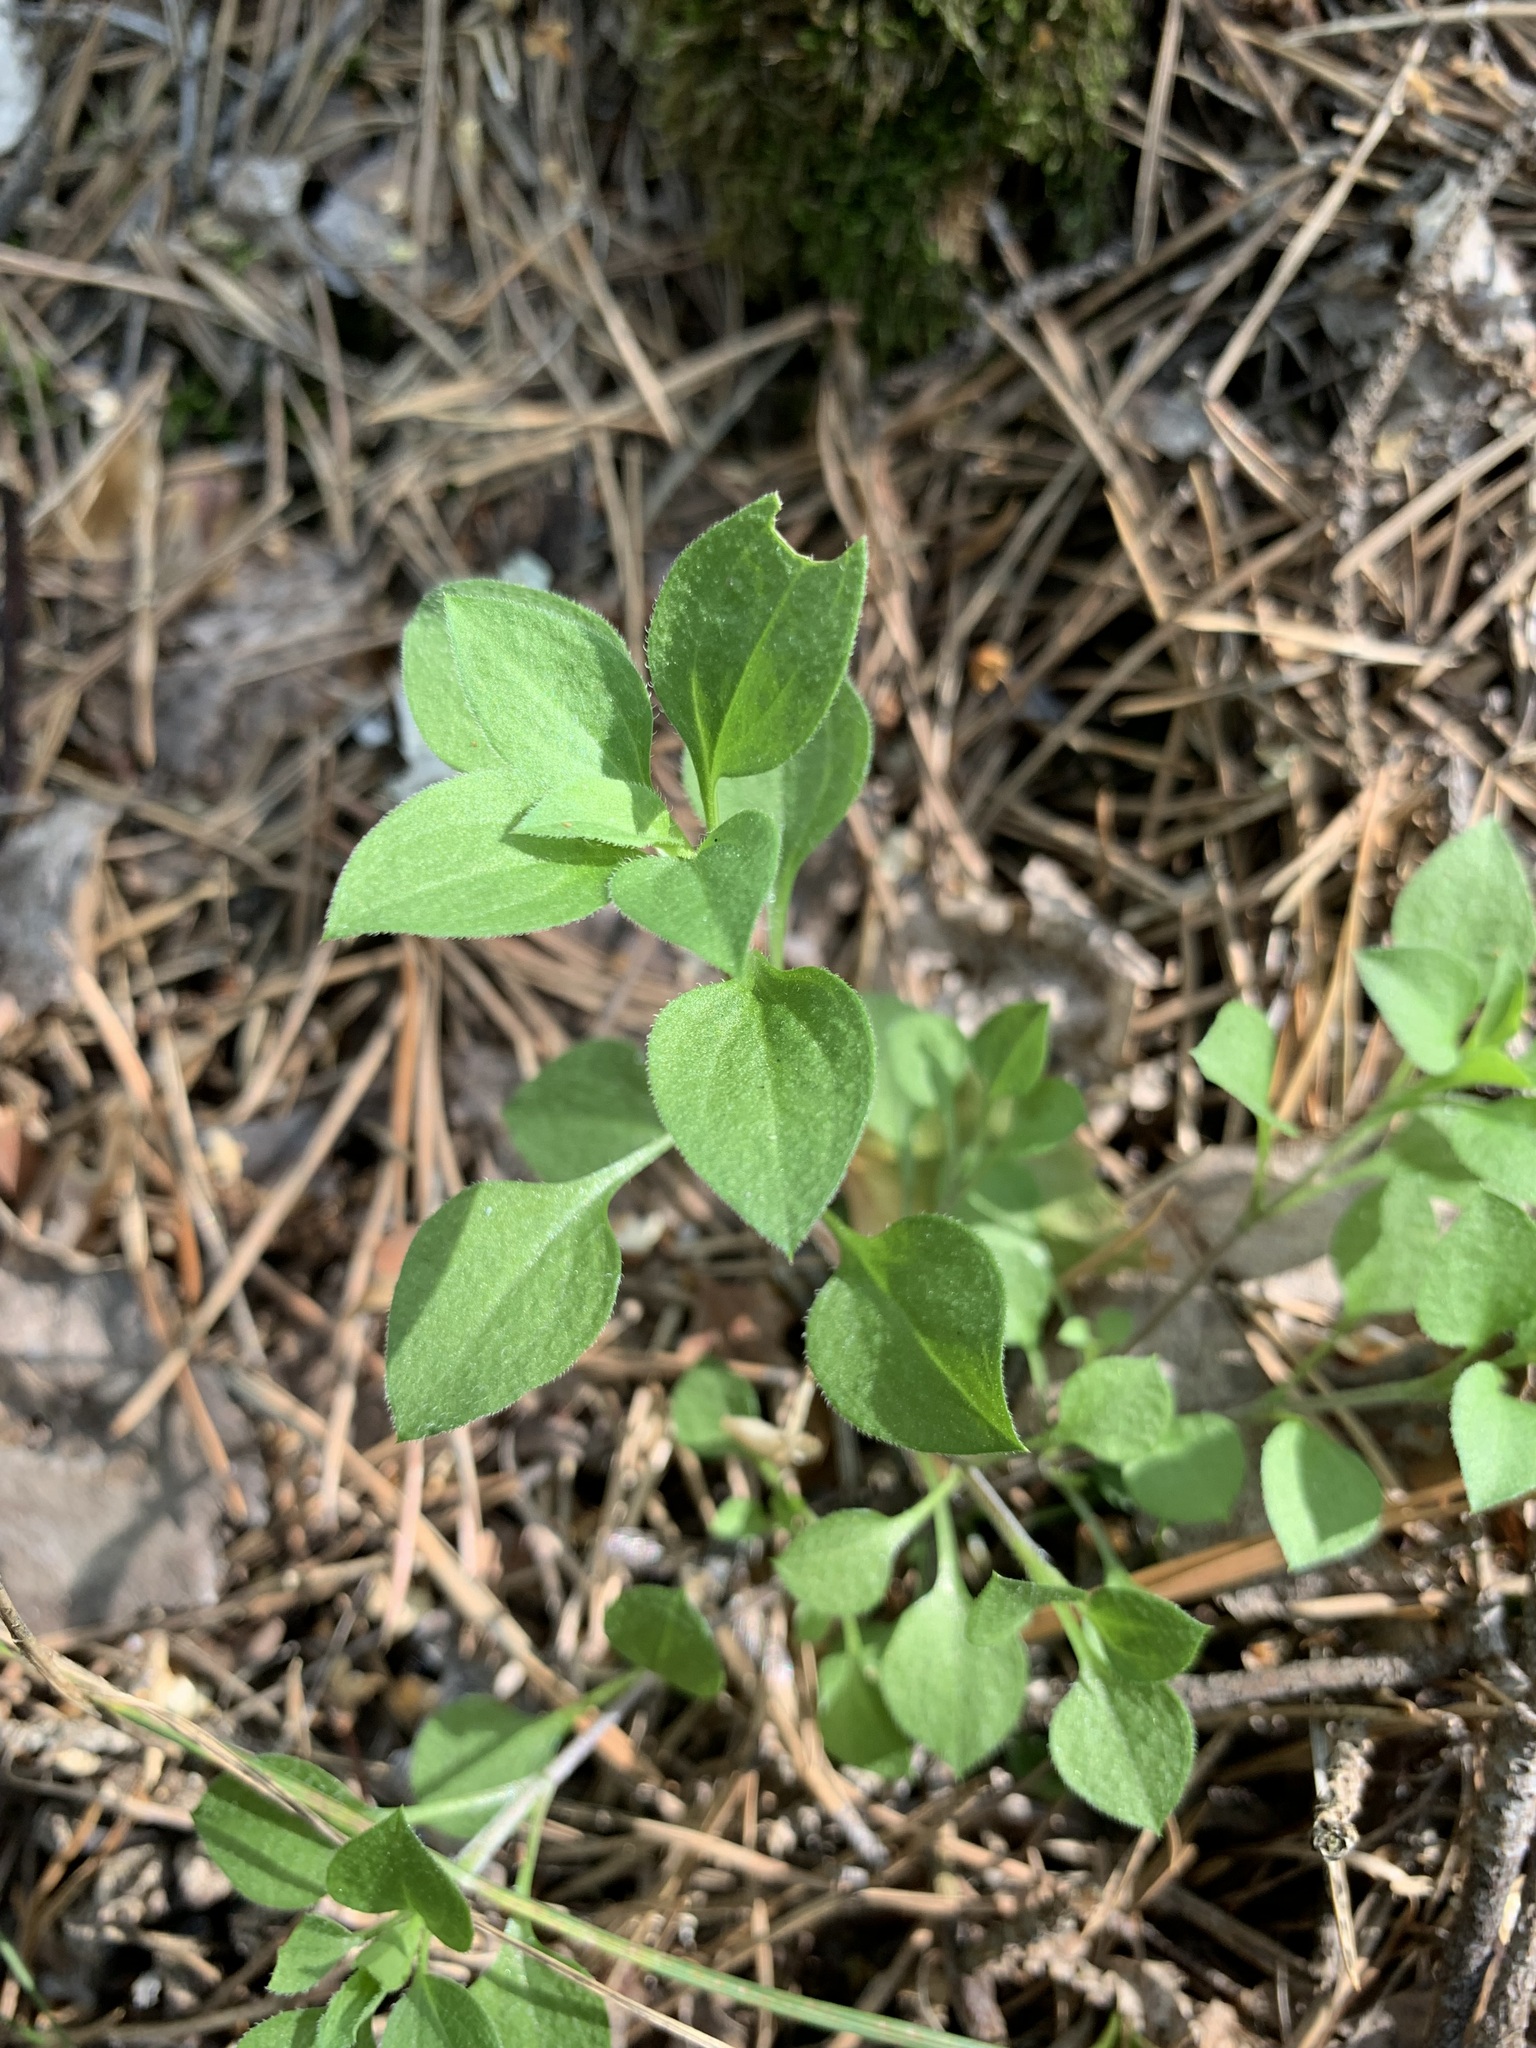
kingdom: Plantae
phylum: Tracheophyta
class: Magnoliopsida
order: Caryophyllales
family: Caryophyllaceae
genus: Moehringia
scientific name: Moehringia trinervia
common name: Three-nerved sandwort
